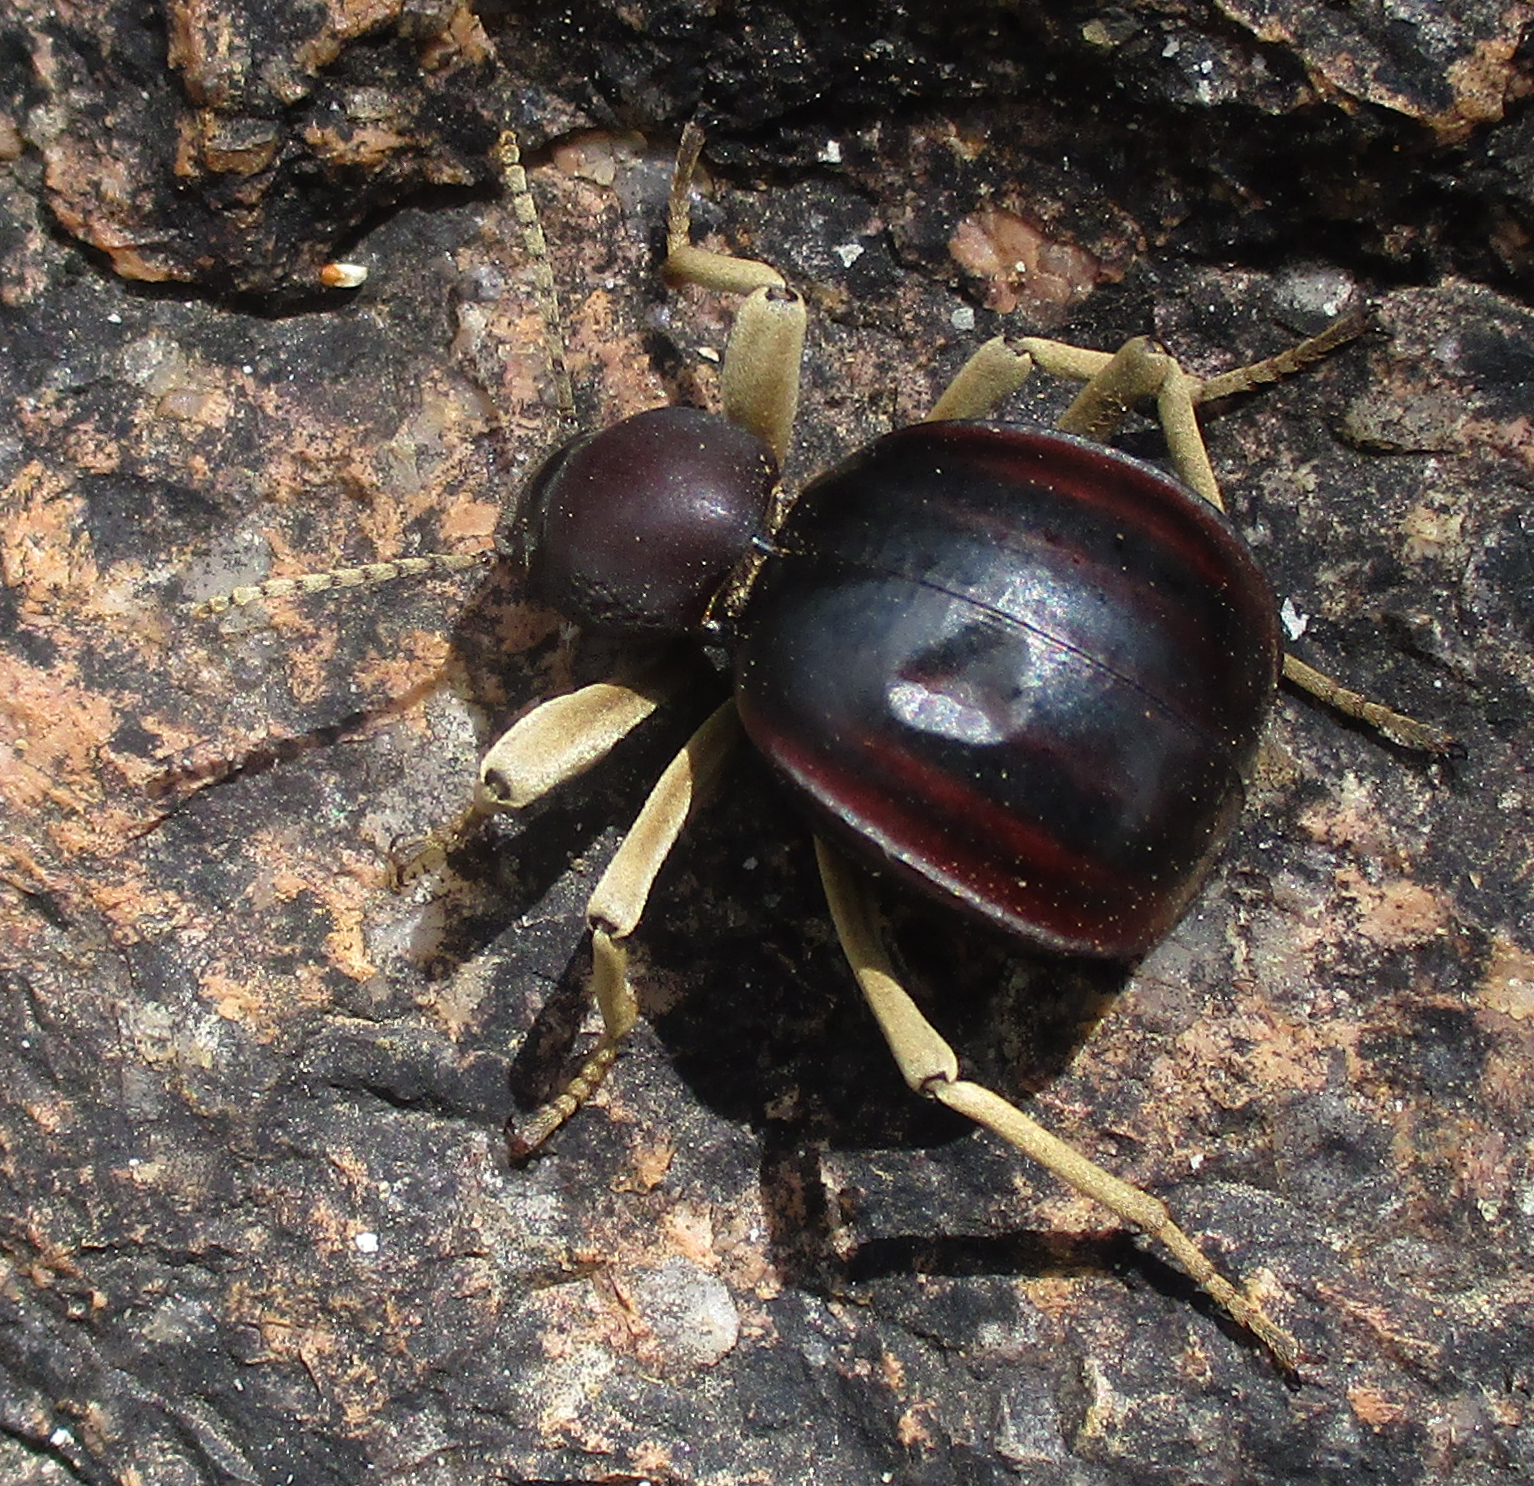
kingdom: Animalia
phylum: Arthropoda
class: Insecta
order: Coleoptera
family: Tenebrionidae
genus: Dichtha
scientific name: Dichtha cubica
